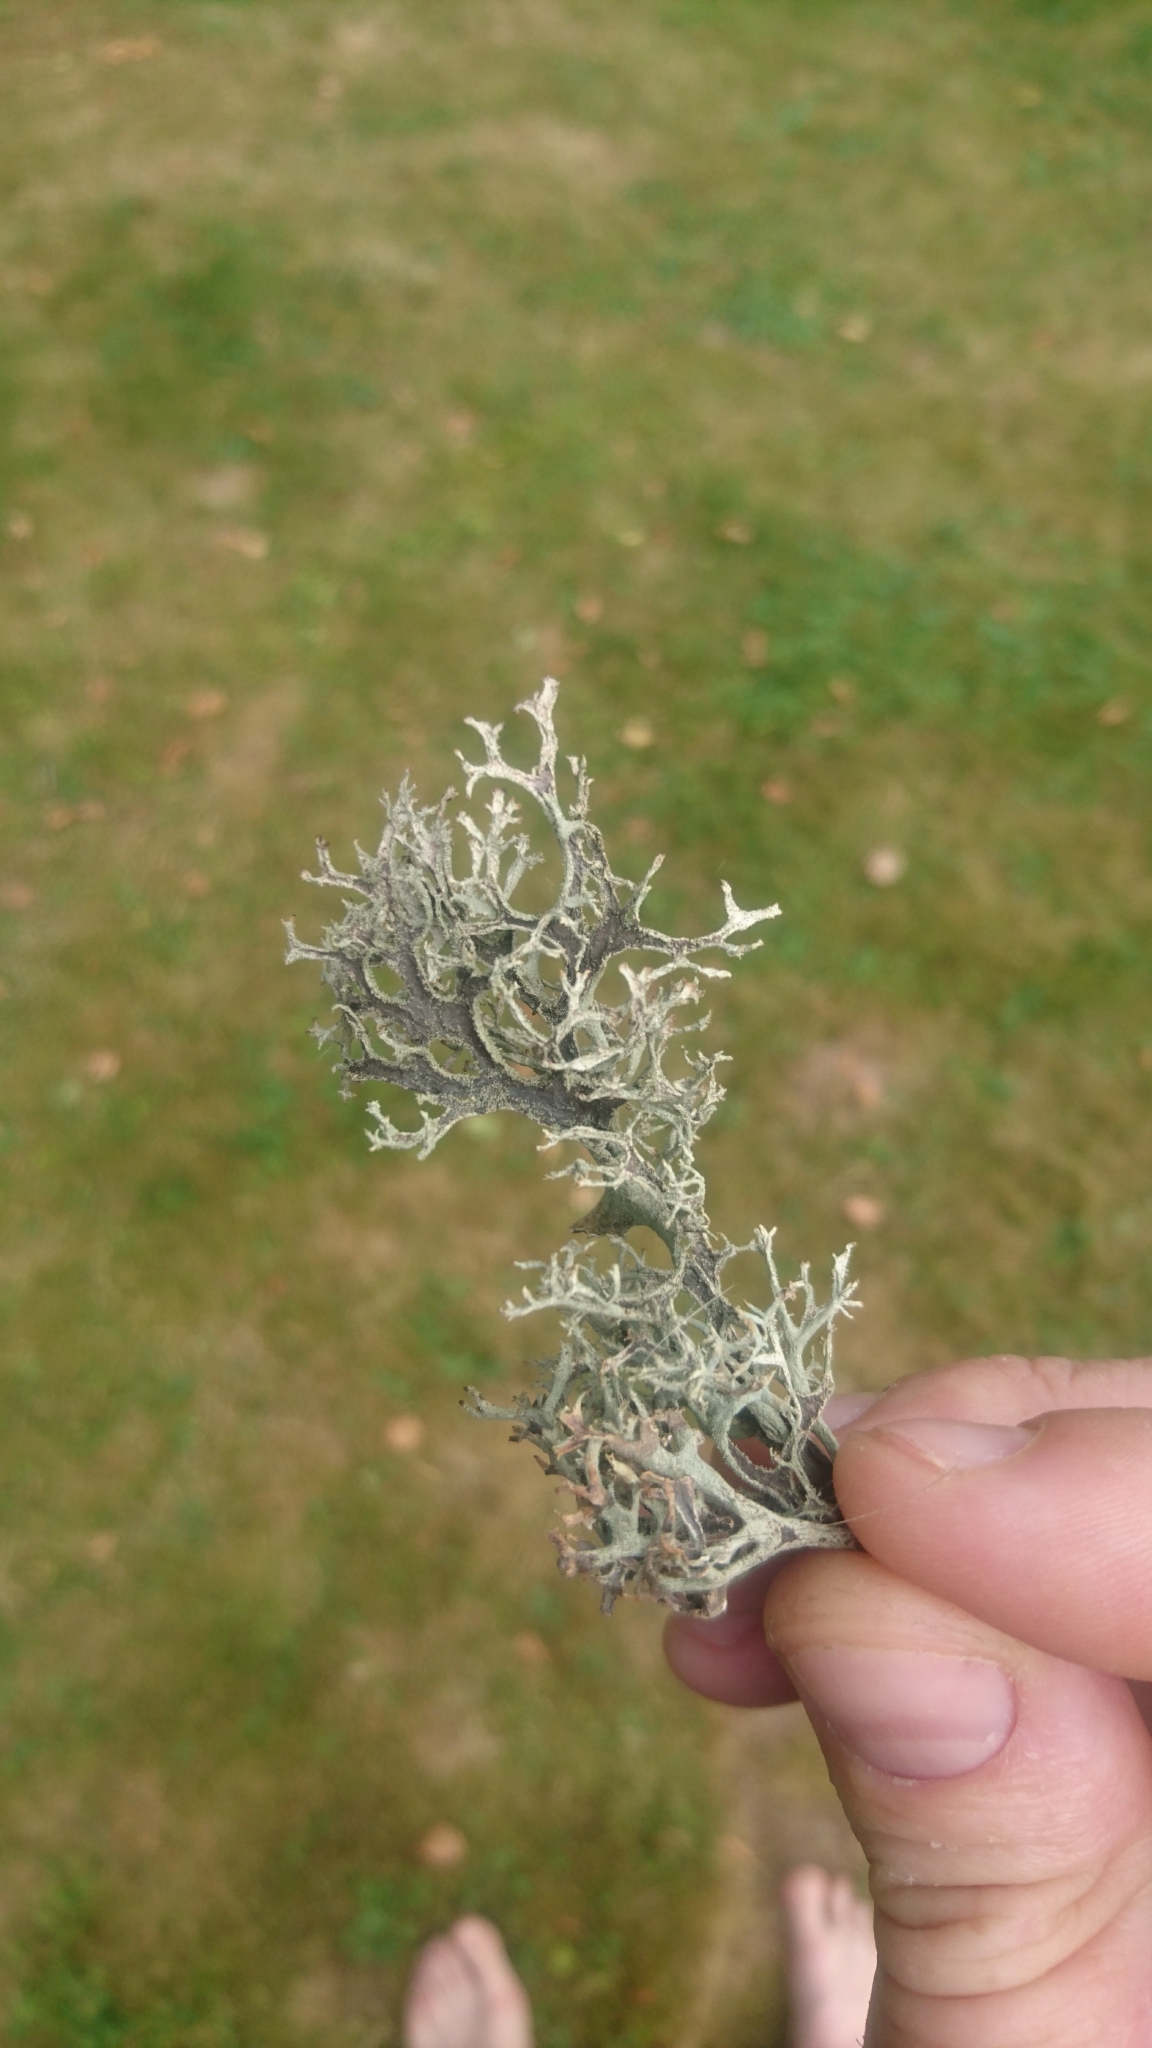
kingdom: Fungi
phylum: Ascomycota
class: Lecanoromycetes
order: Lecanorales
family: Parmeliaceae
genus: Pseudevernia
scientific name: Pseudevernia furfuracea
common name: Tree moss
